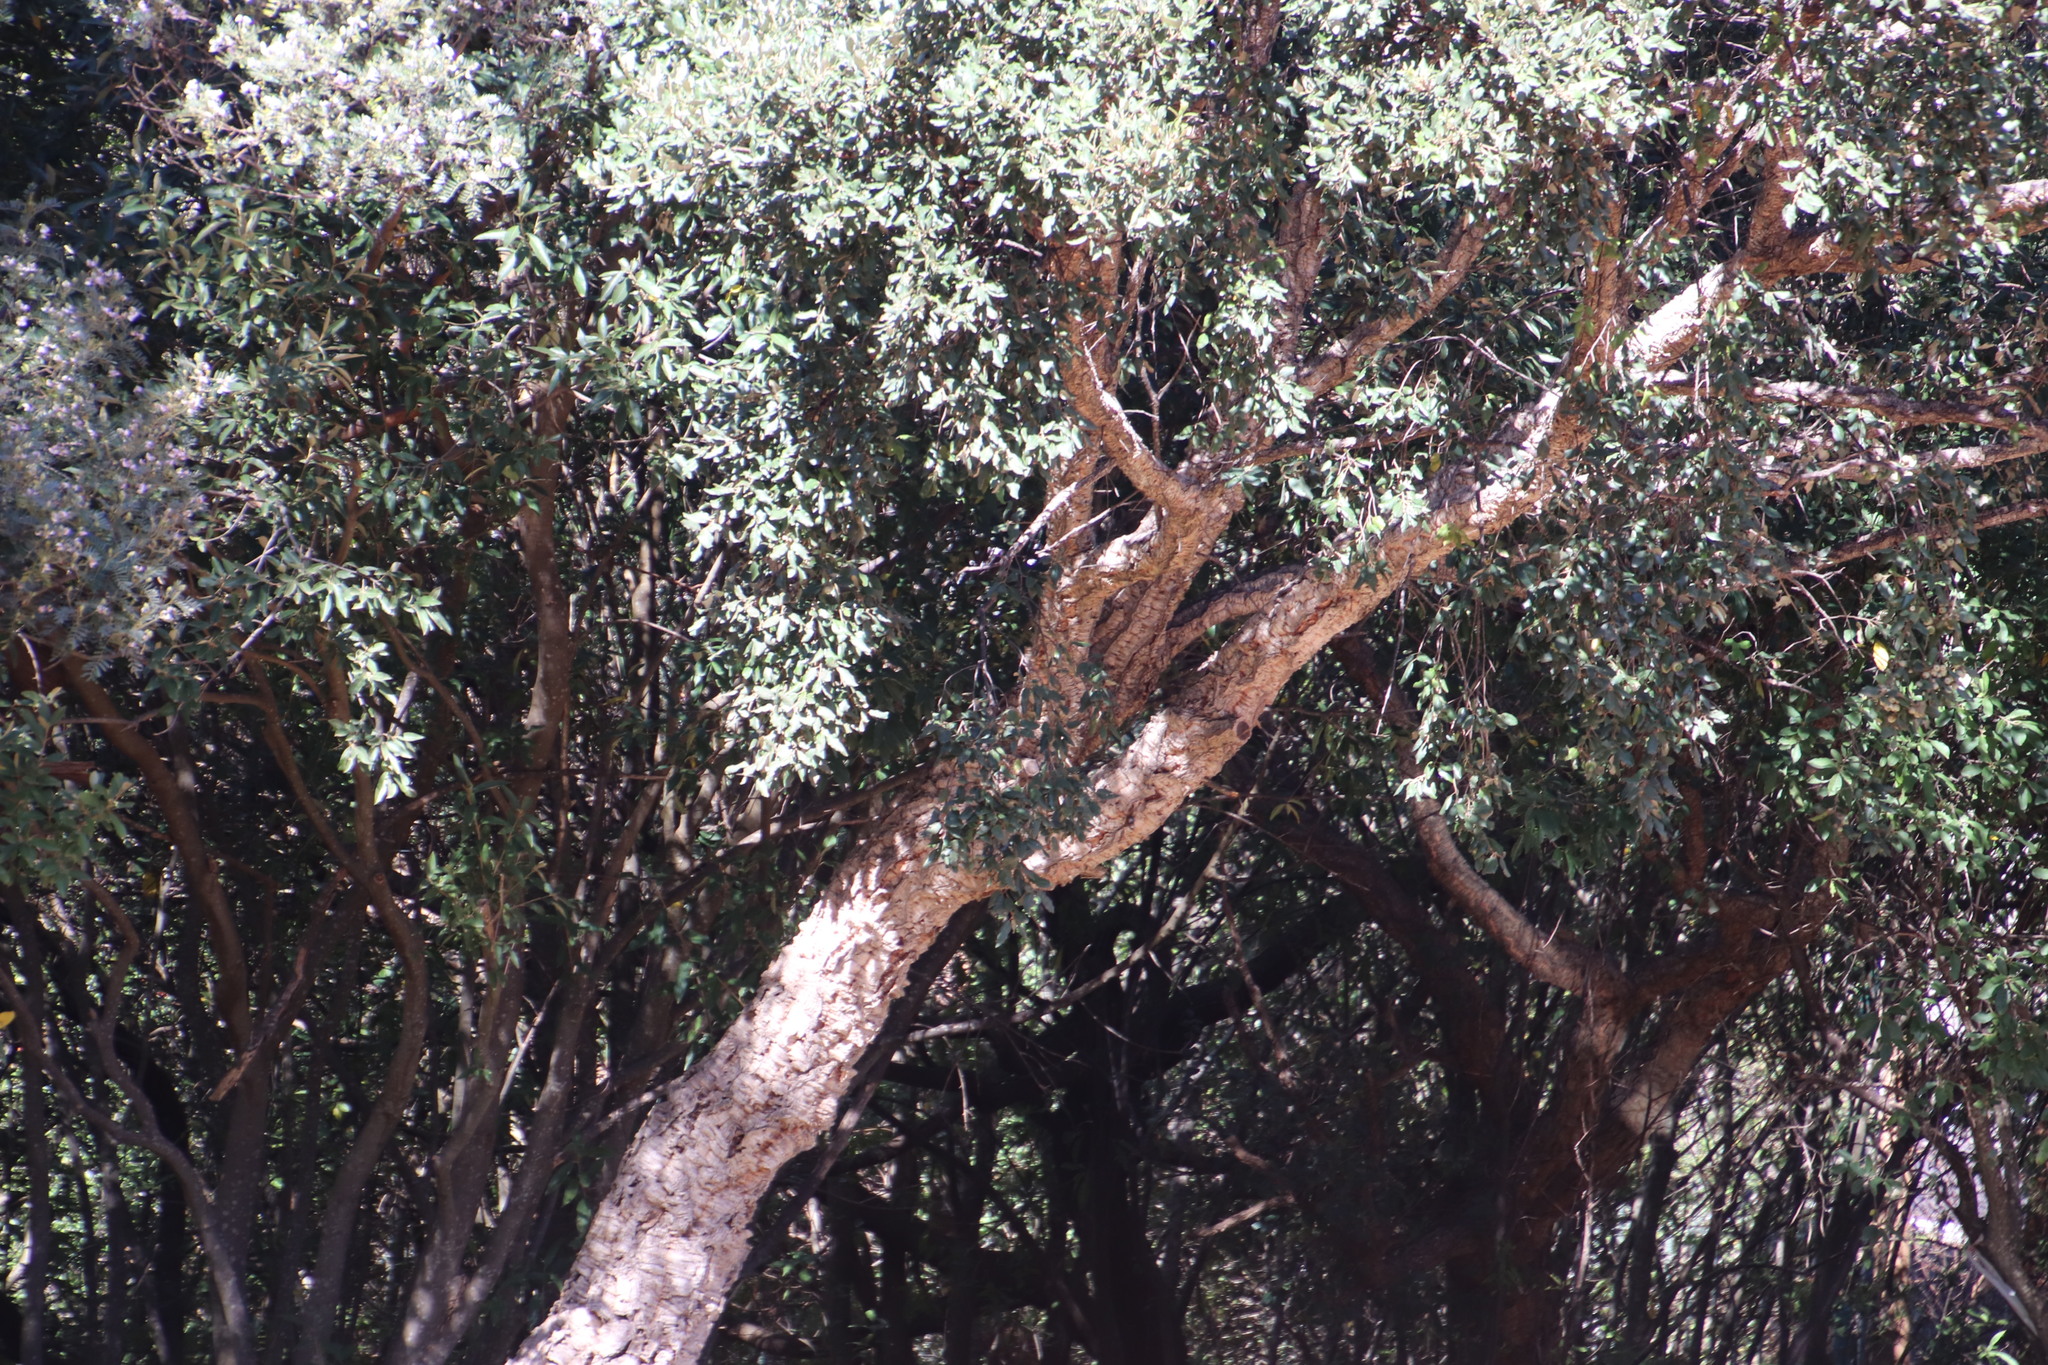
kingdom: Plantae
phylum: Tracheophyta
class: Magnoliopsida
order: Fagales
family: Fagaceae
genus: Quercus
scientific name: Quercus suber
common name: Cork oak
